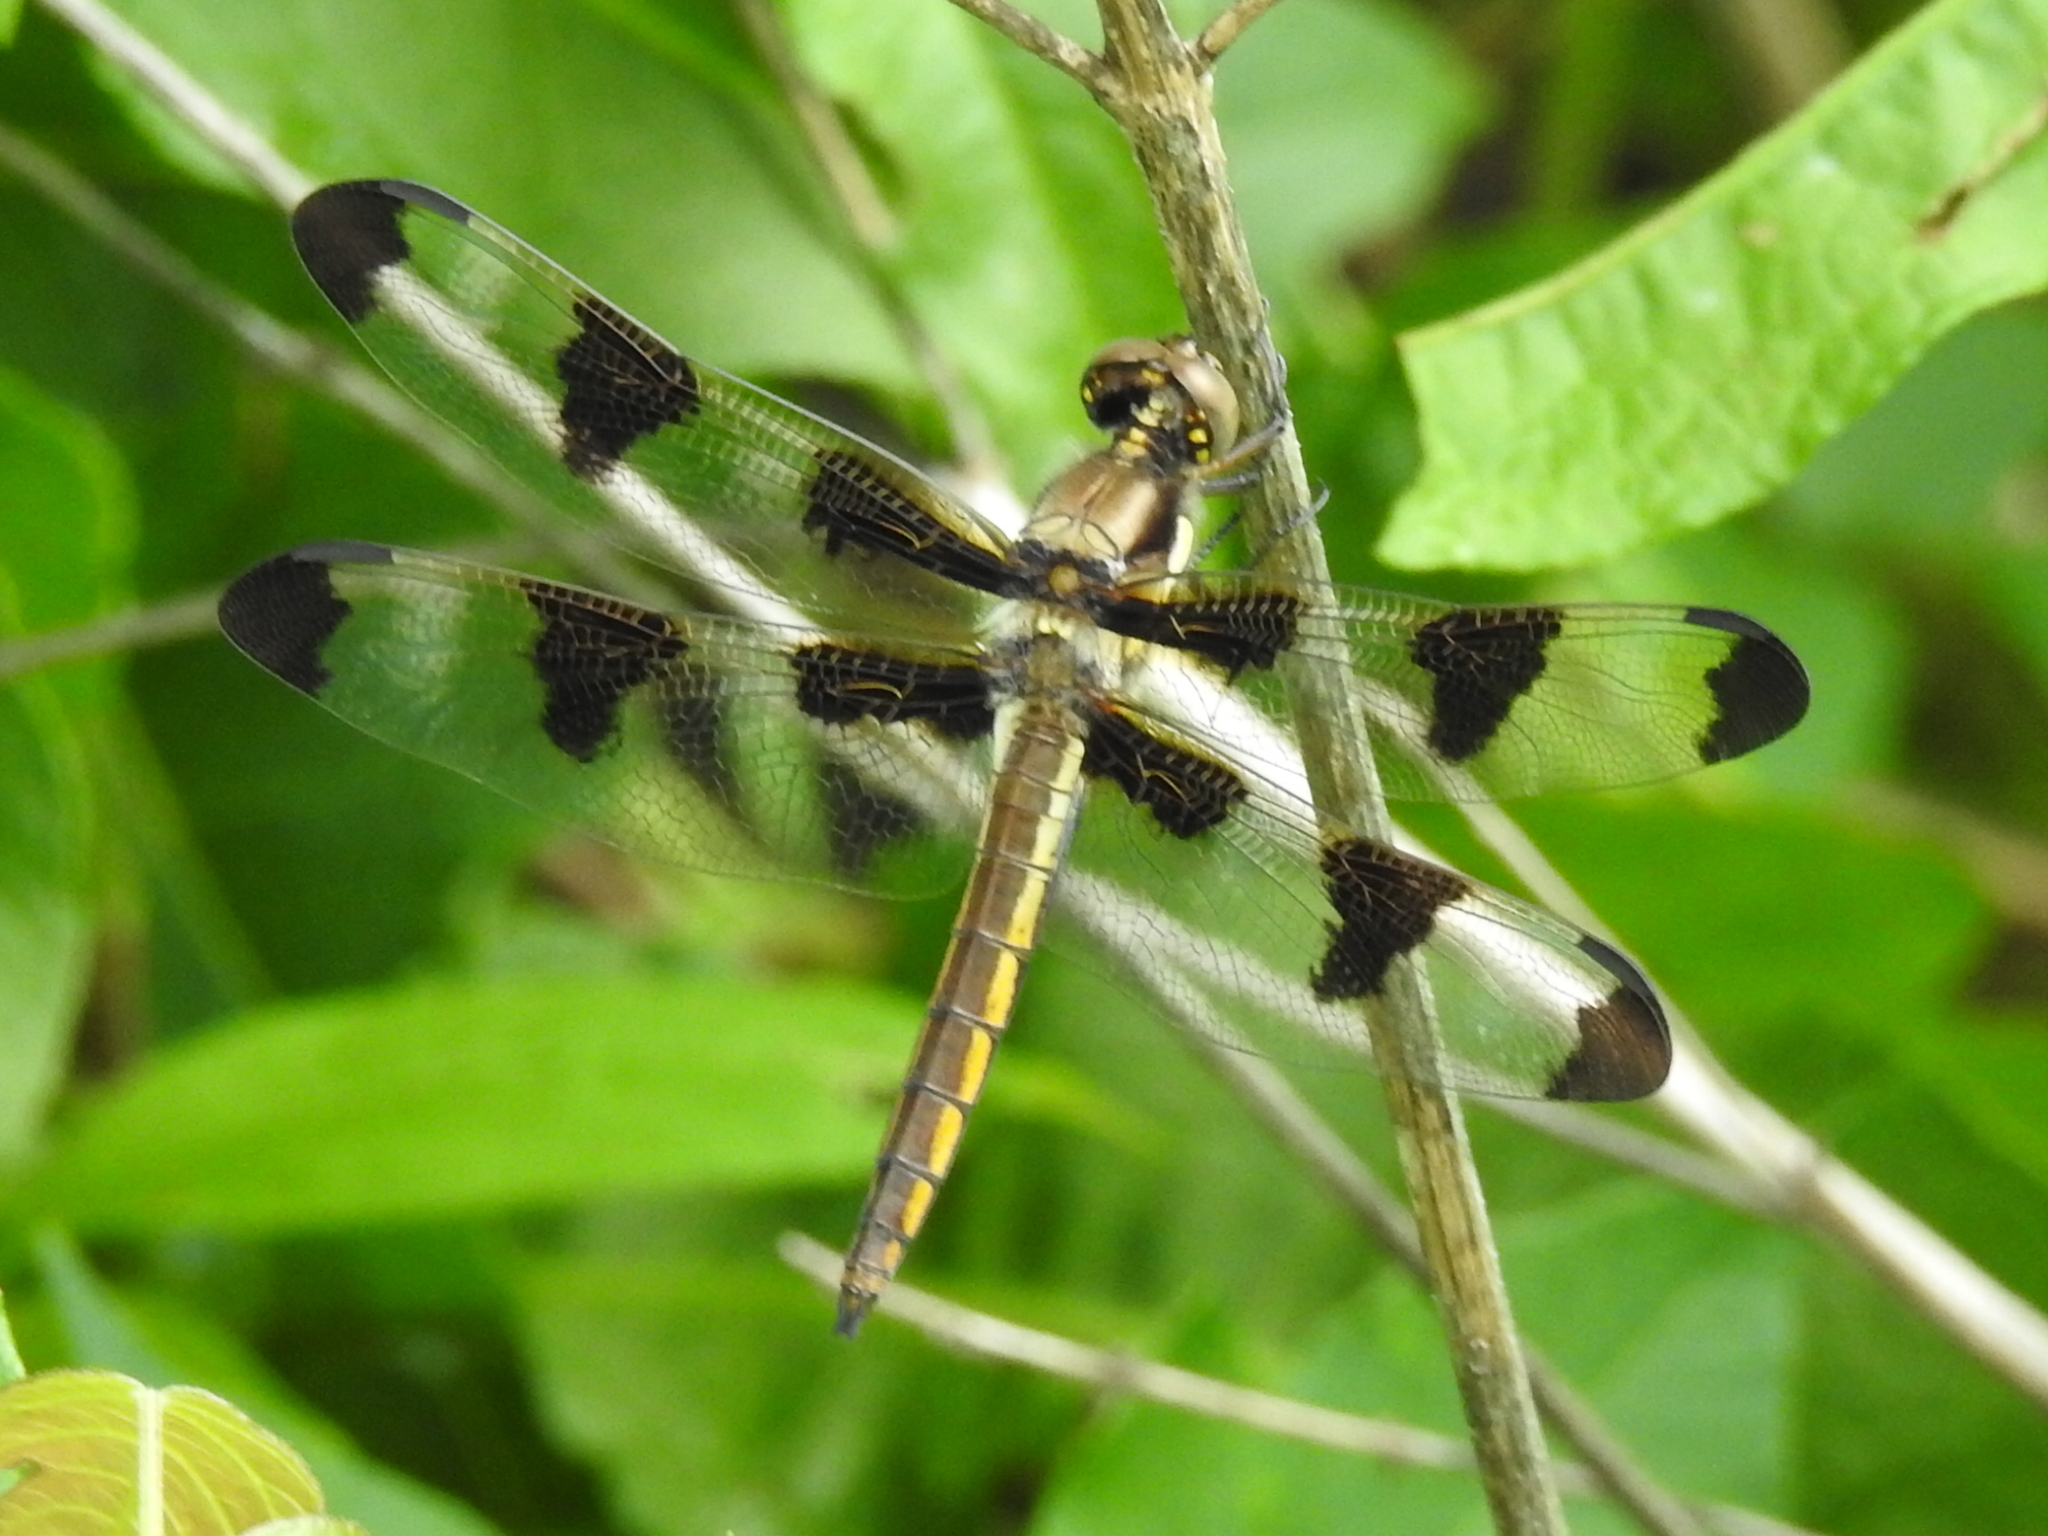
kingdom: Animalia
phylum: Arthropoda
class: Insecta
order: Odonata
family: Libellulidae
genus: Libellula
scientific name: Libellula pulchella
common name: Twelve-spotted skimmer
